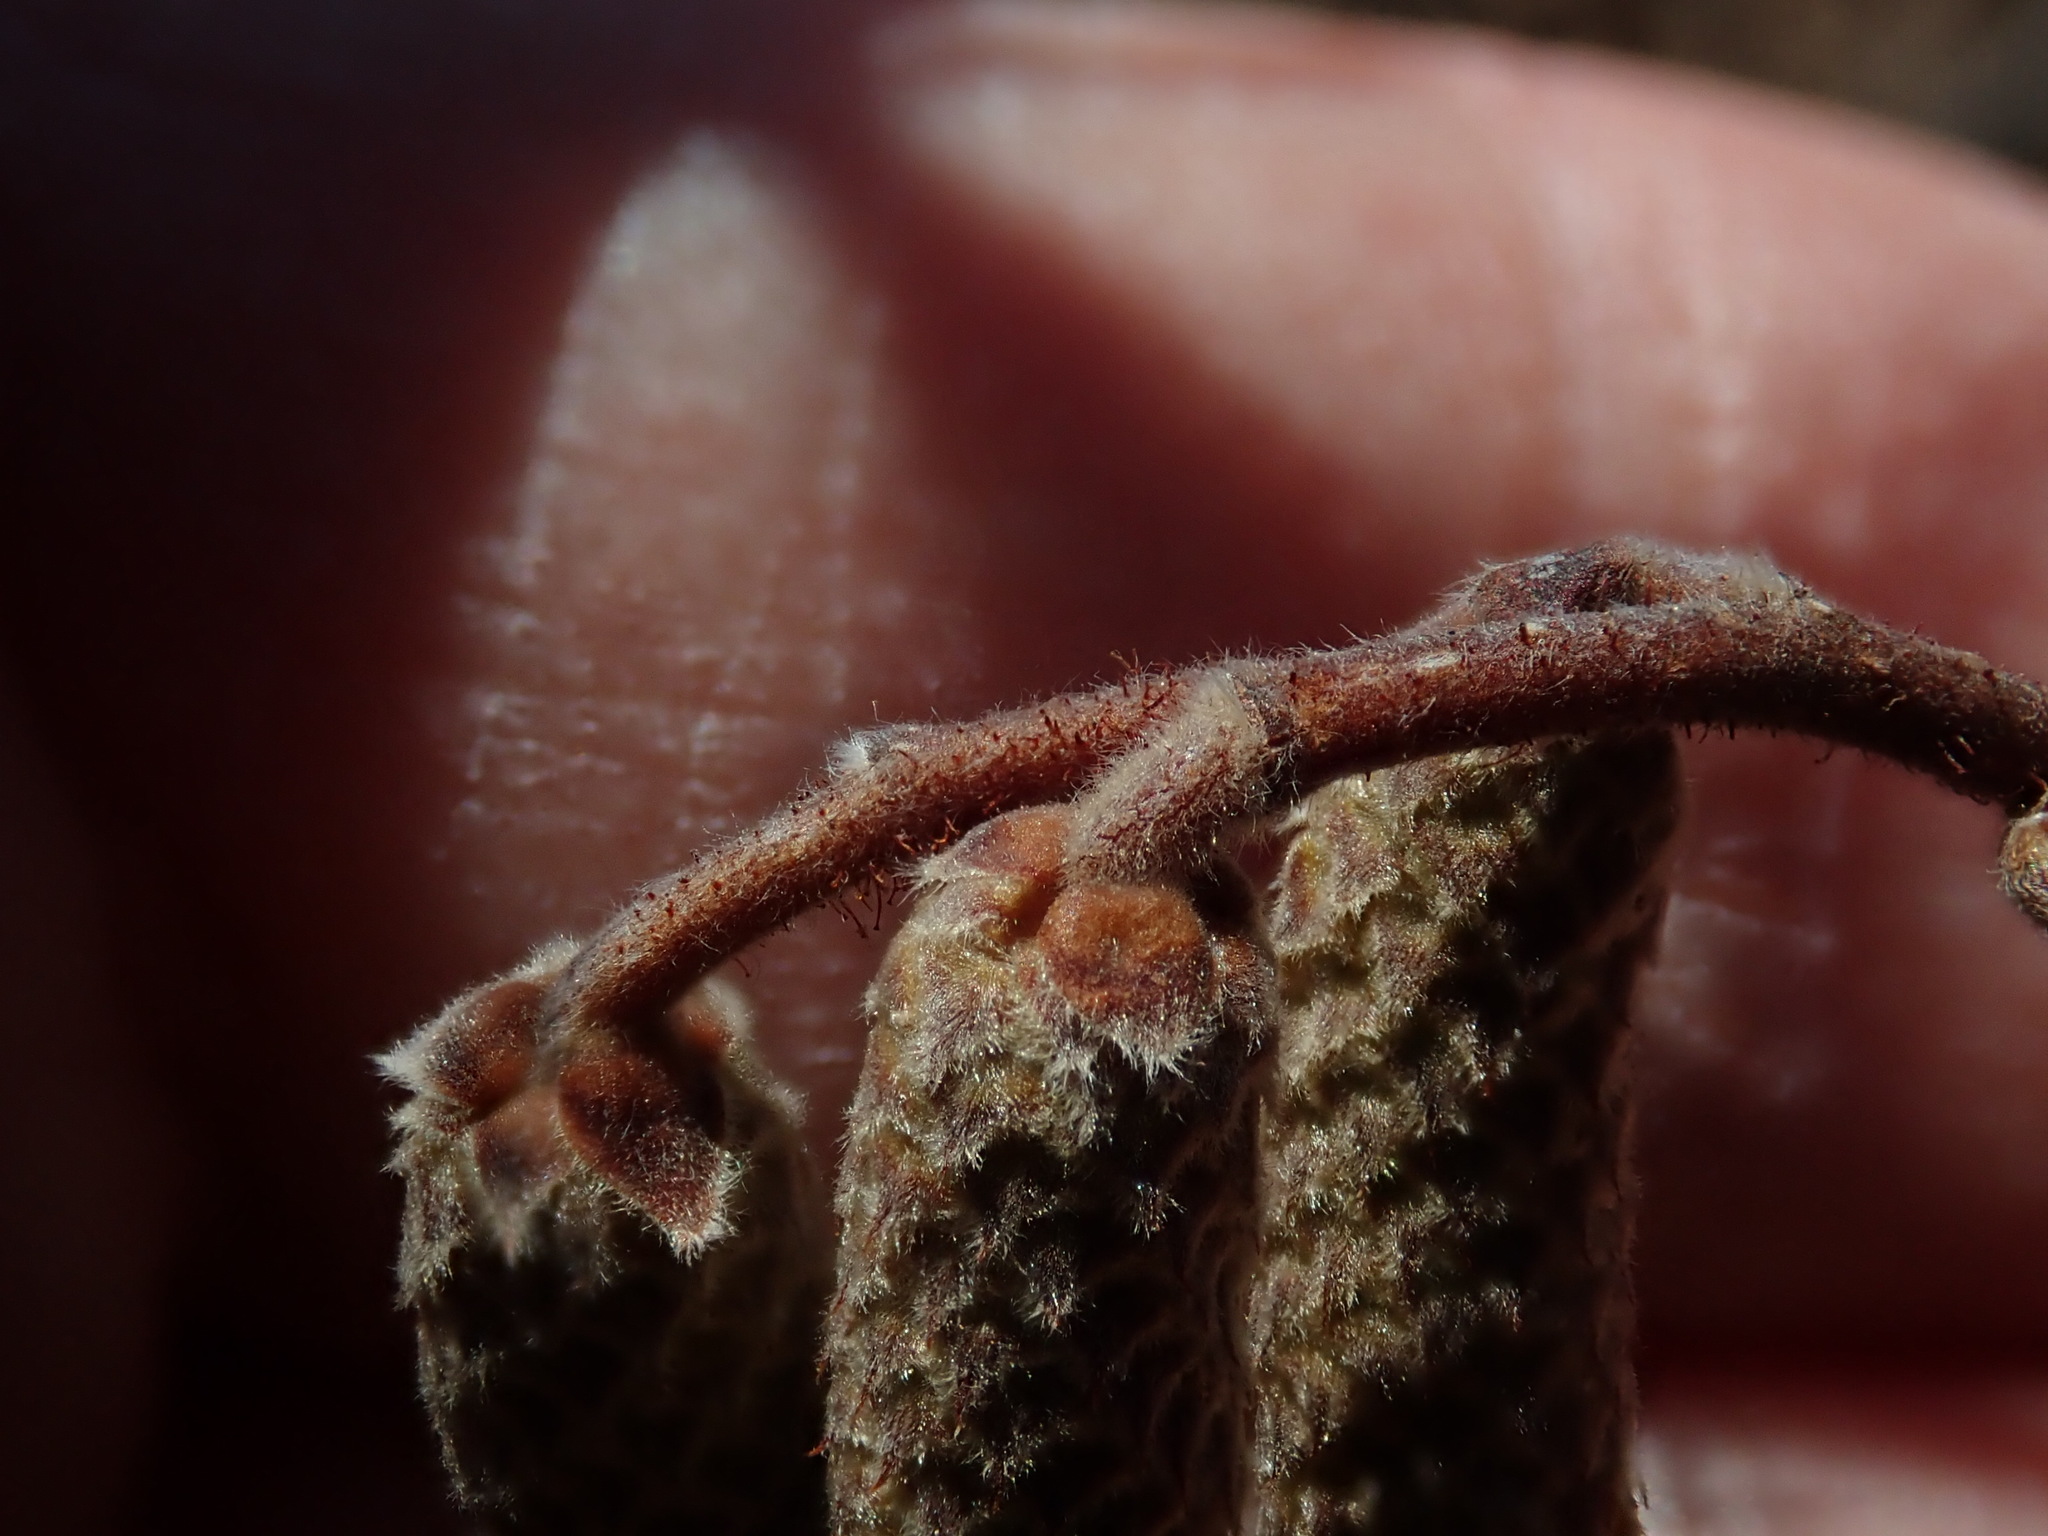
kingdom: Plantae
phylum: Tracheophyta
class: Magnoliopsida
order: Fagales
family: Betulaceae
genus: Corylus
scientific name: Corylus americana
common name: American hazel
